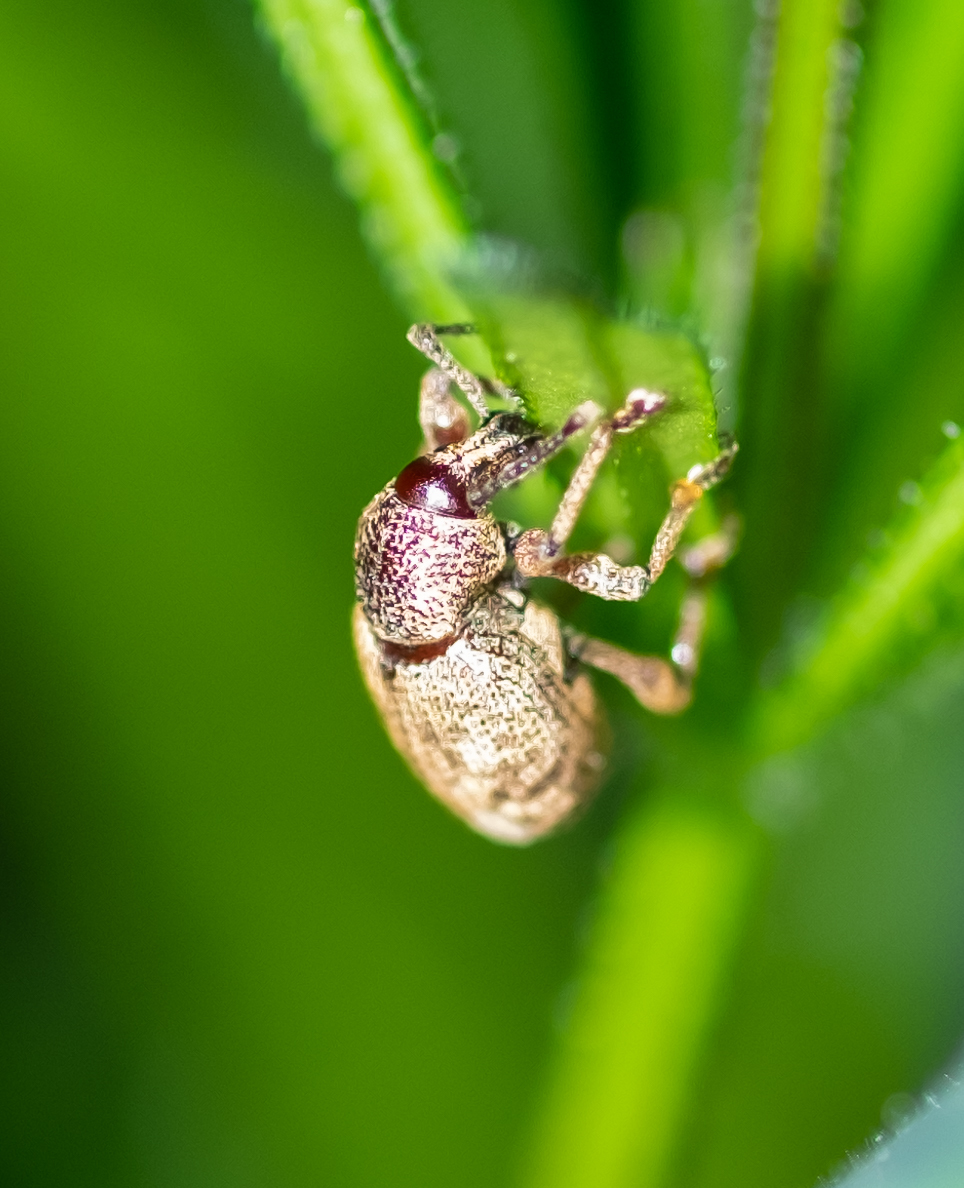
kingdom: Animalia
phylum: Arthropoda
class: Insecta
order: Coleoptera
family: Curculionidae
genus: Otiorhynchus
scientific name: Otiorhynchus singularis
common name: Clay-coloured weevil
